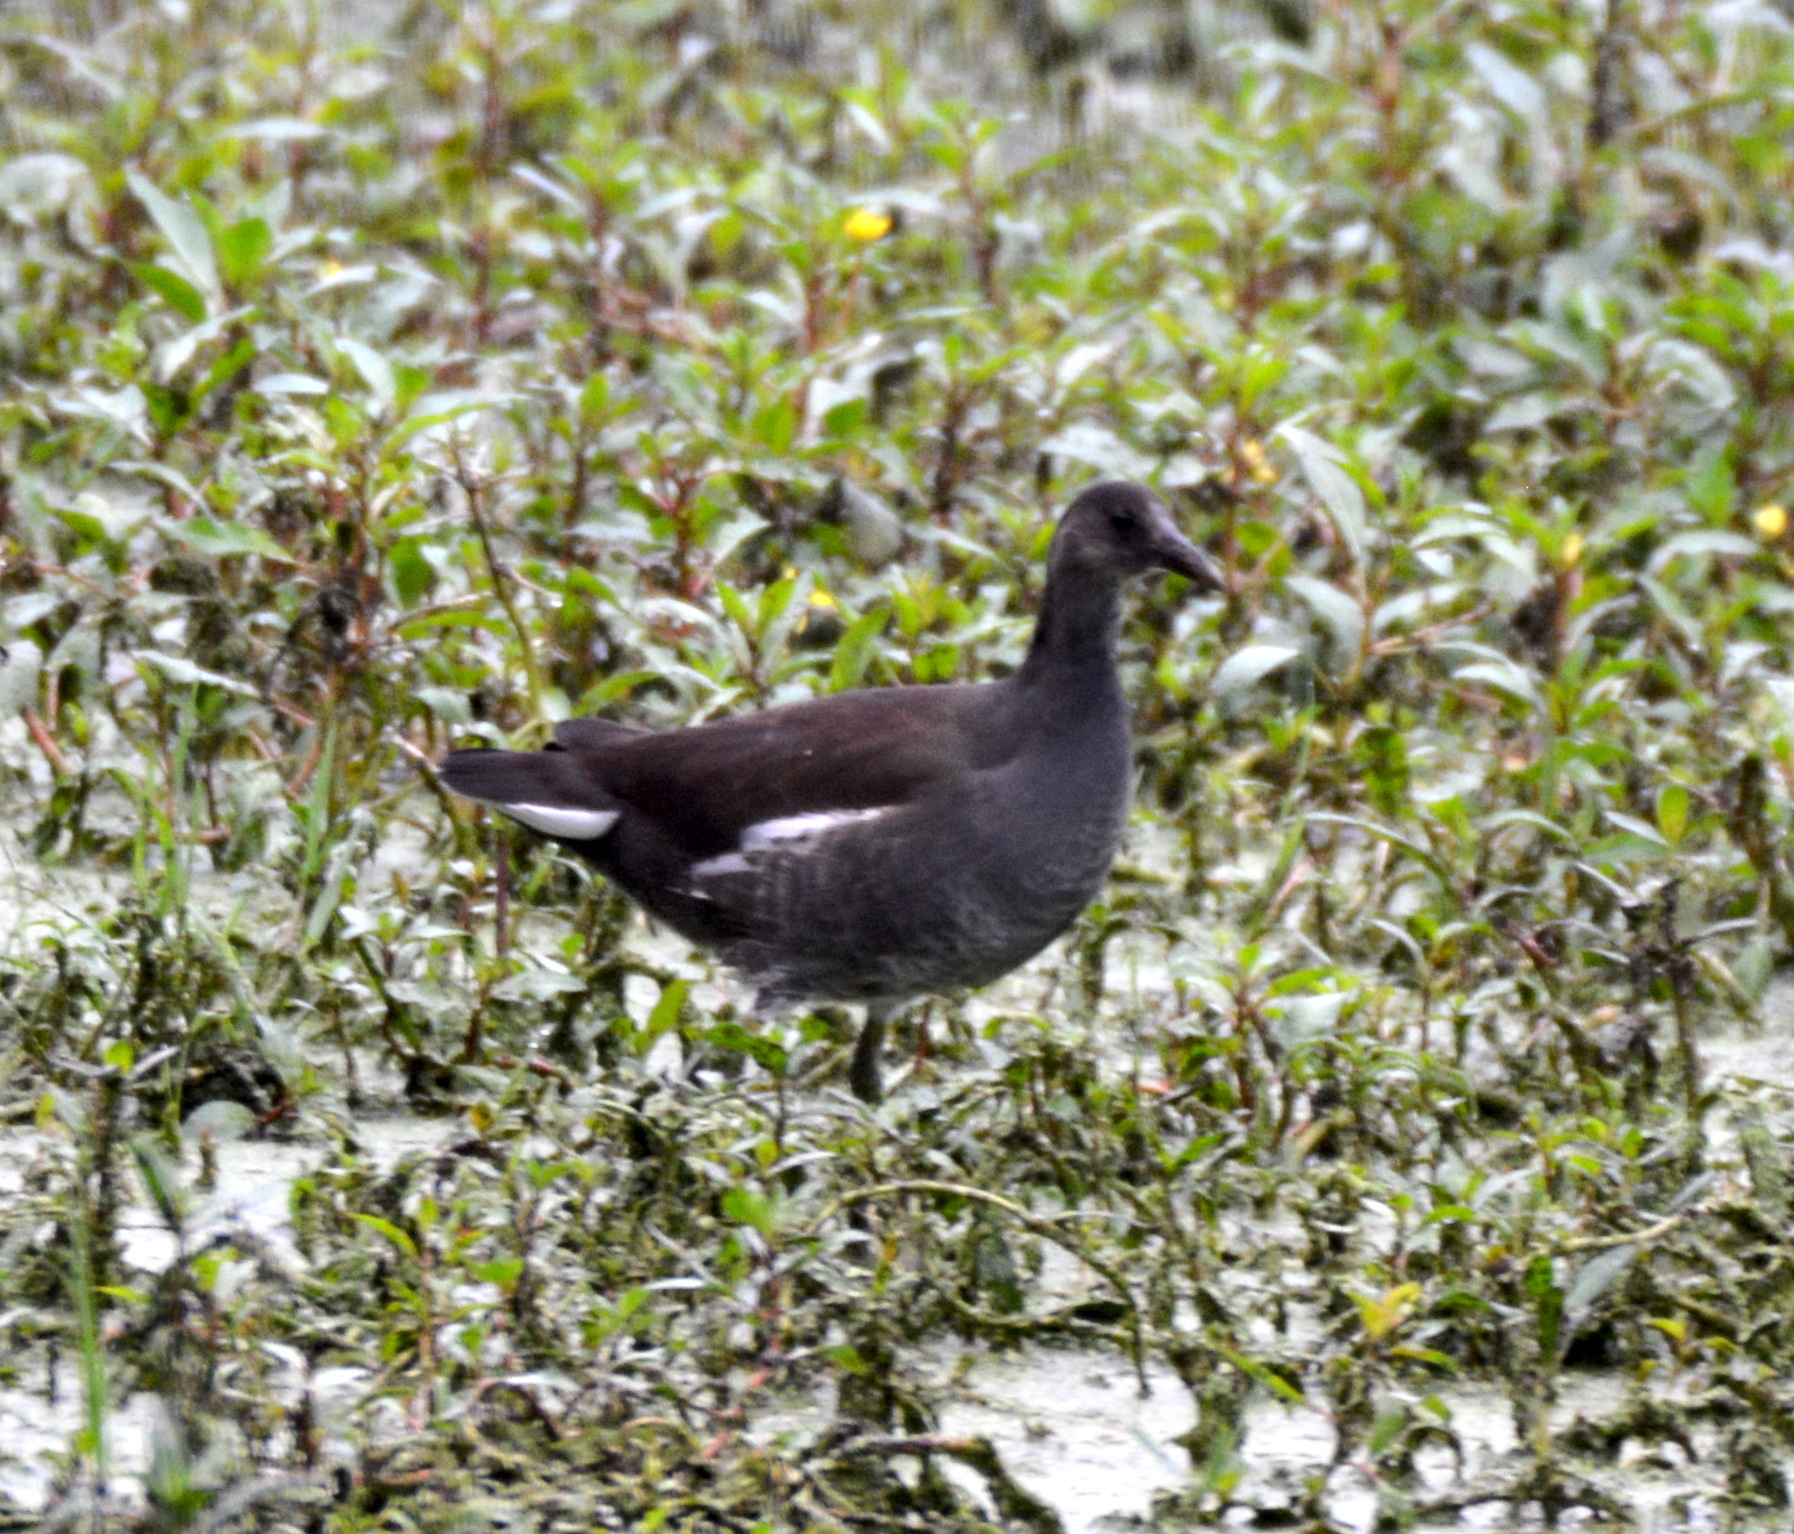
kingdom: Animalia
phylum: Chordata
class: Aves
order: Gruiformes
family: Rallidae
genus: Gallinula
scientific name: Gallinula chloropus
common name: Common moorhen
